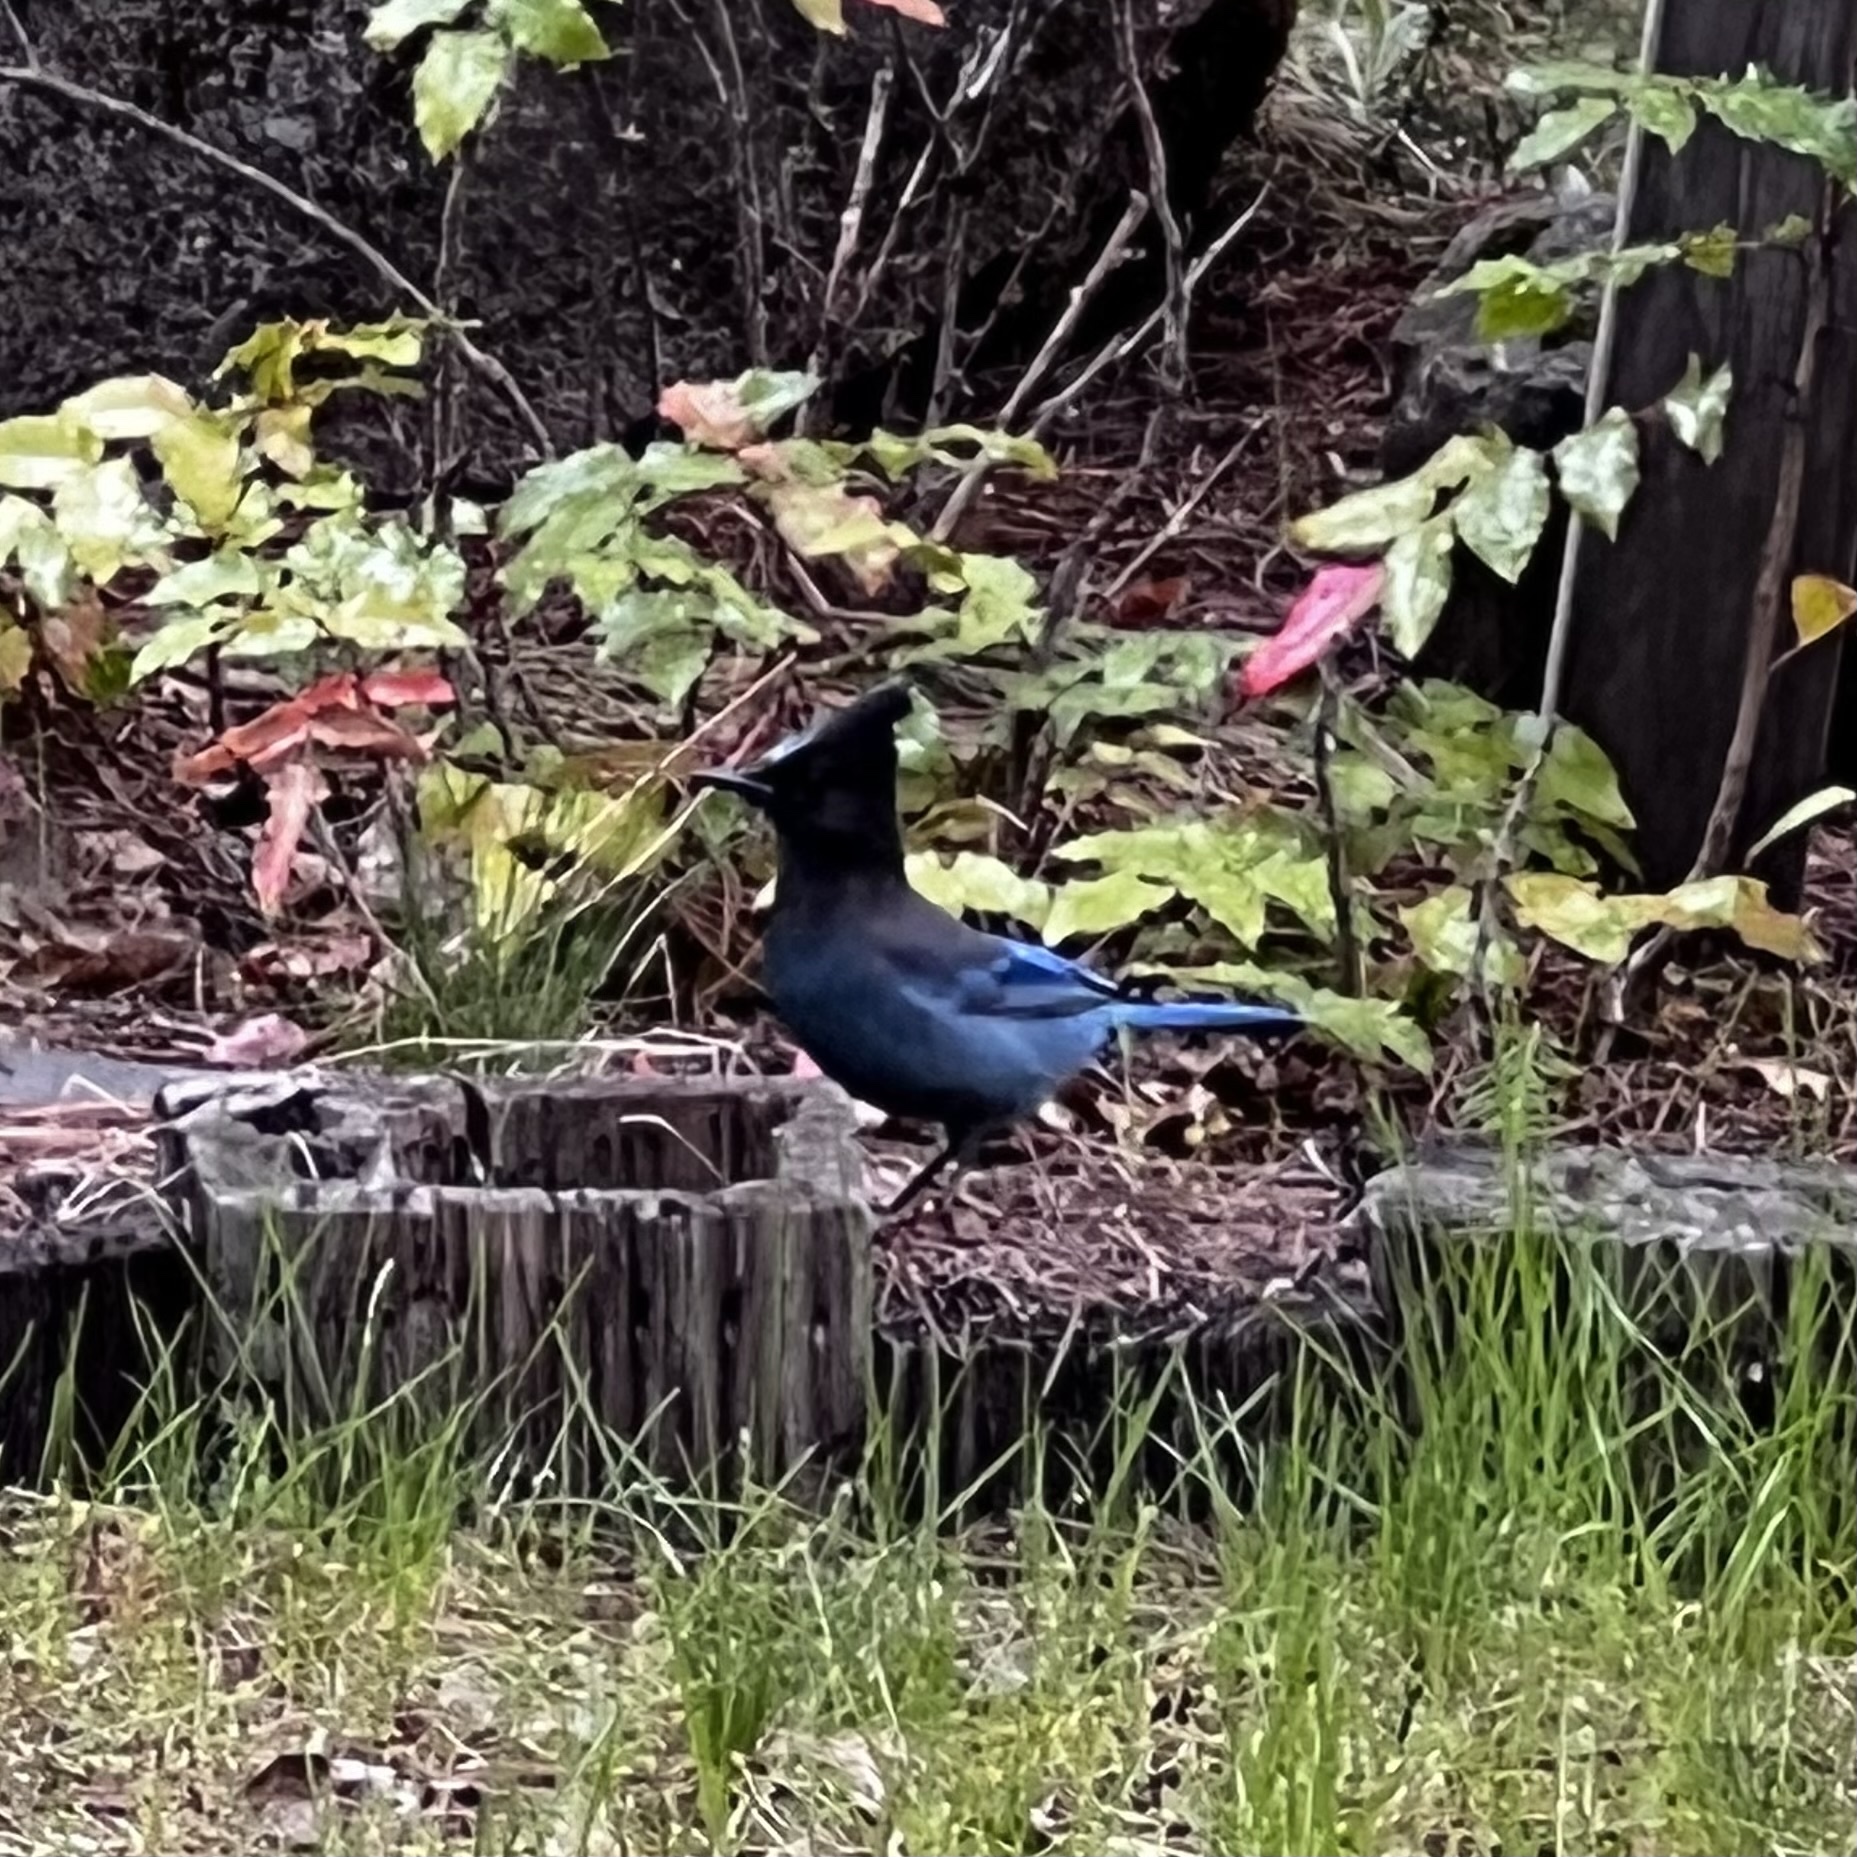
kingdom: Animalia
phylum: Chordata
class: Aves
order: Passeriformes
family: Corvidae
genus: Cyanocitta
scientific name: Cyanocitta stelleri
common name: Steller's jay
